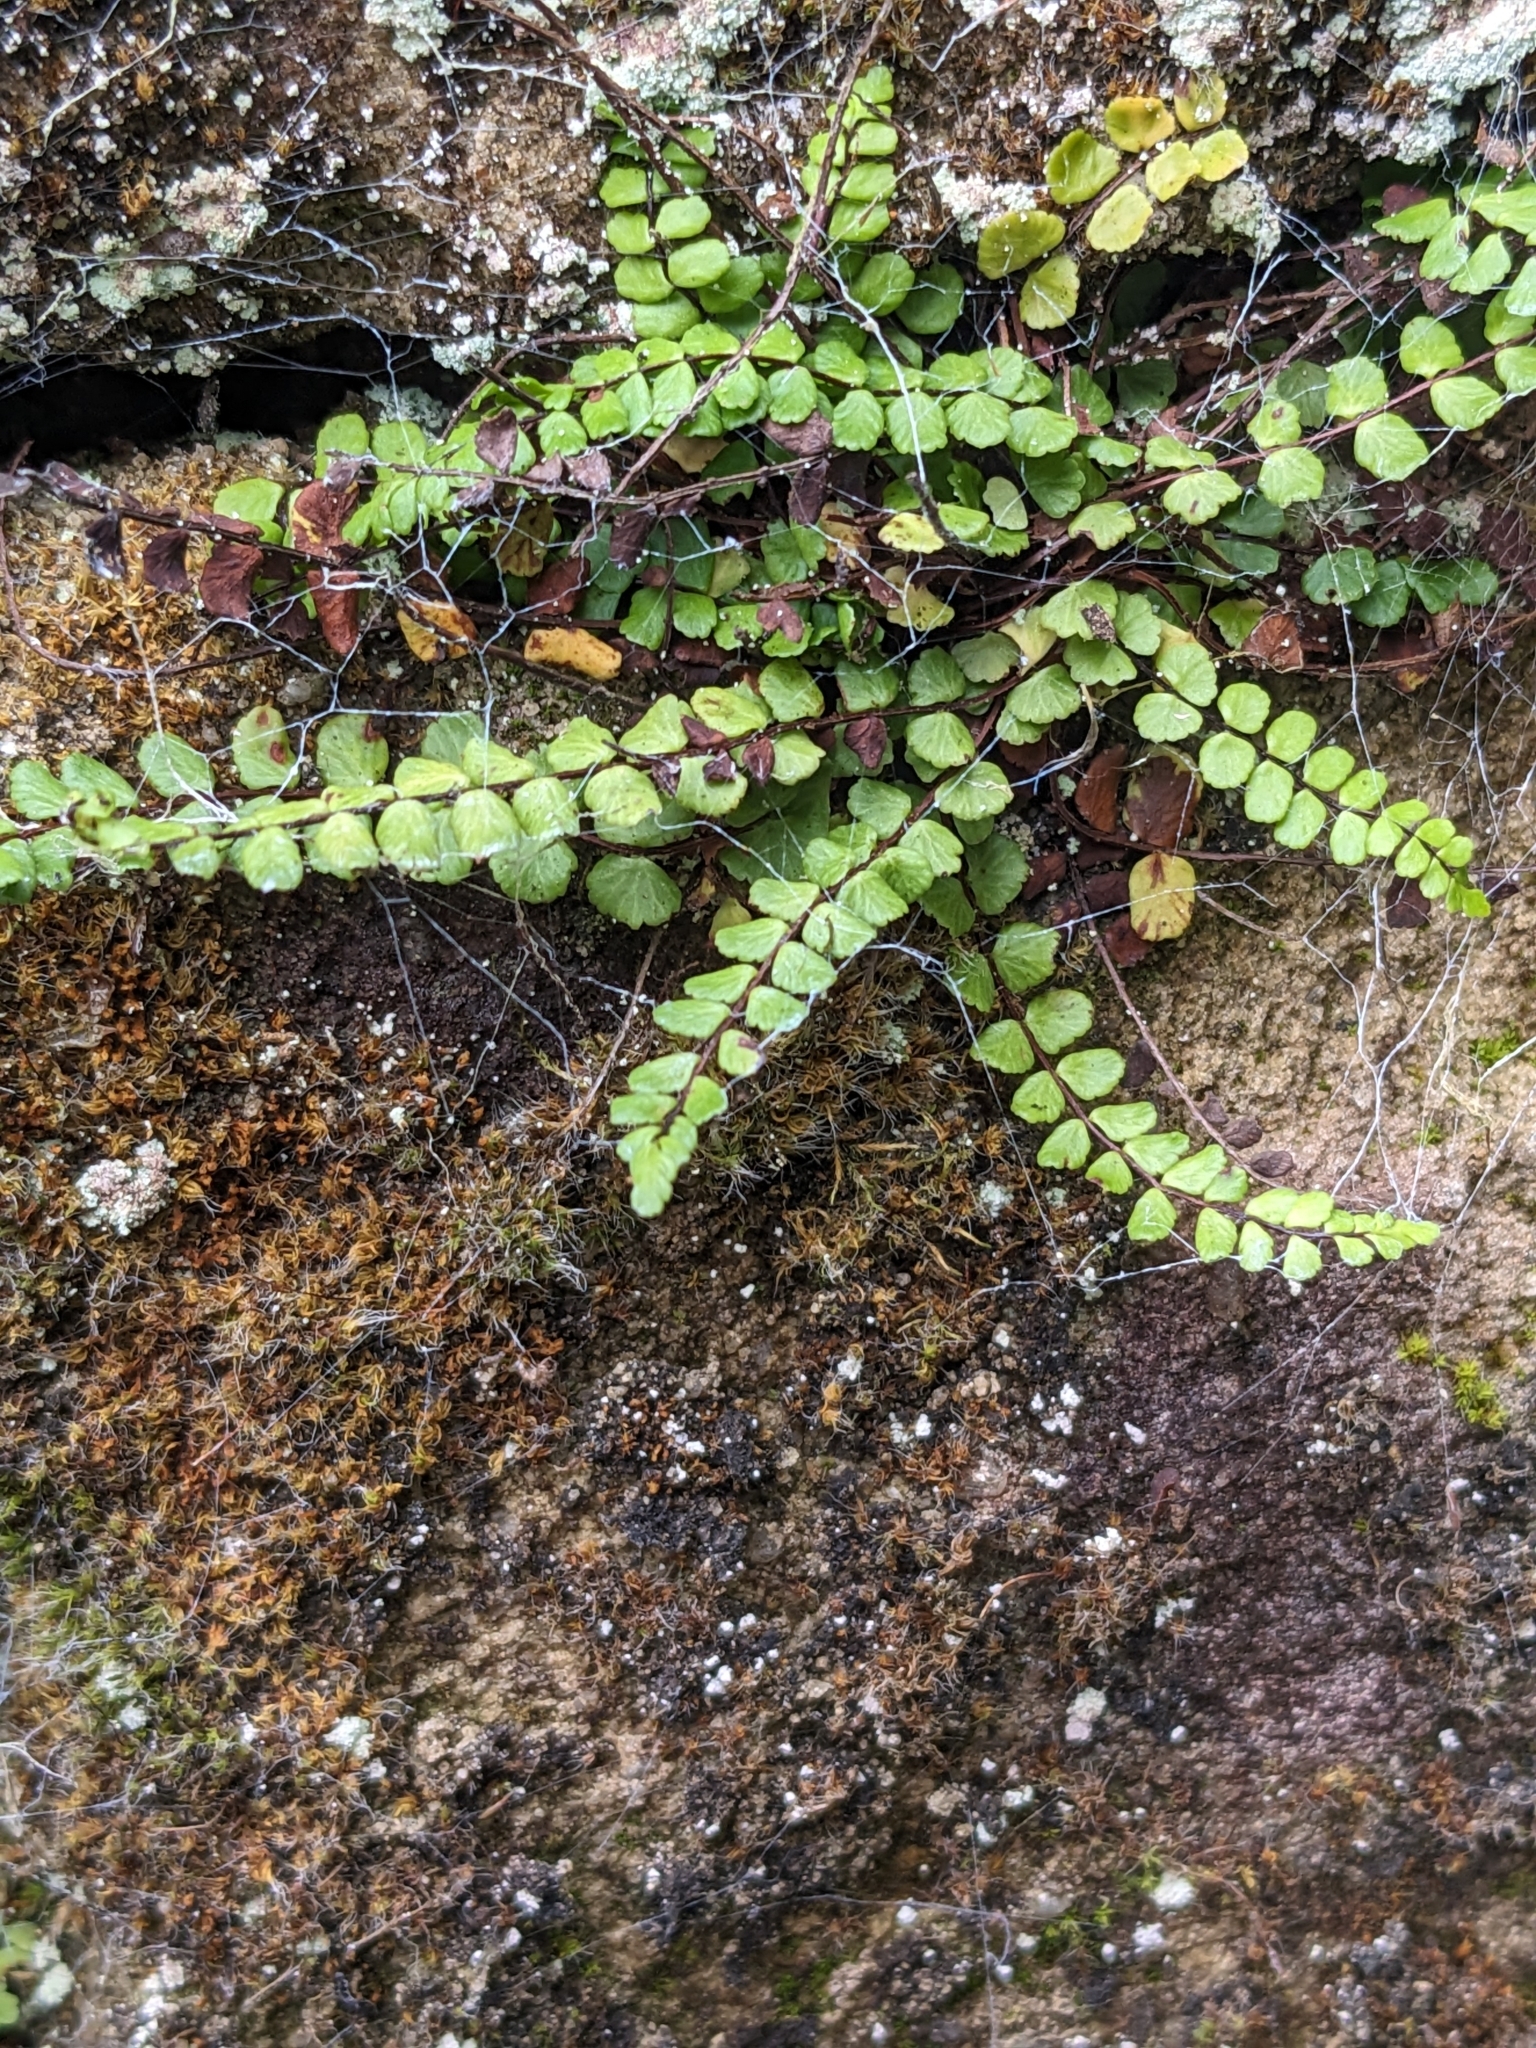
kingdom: Plantae
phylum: Tracheophyta
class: Polypodiopsida
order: Polypodiales
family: Aspleniaceae
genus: Asplenium
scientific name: Asplenium trichomanes
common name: Maidenhair spleenwort
